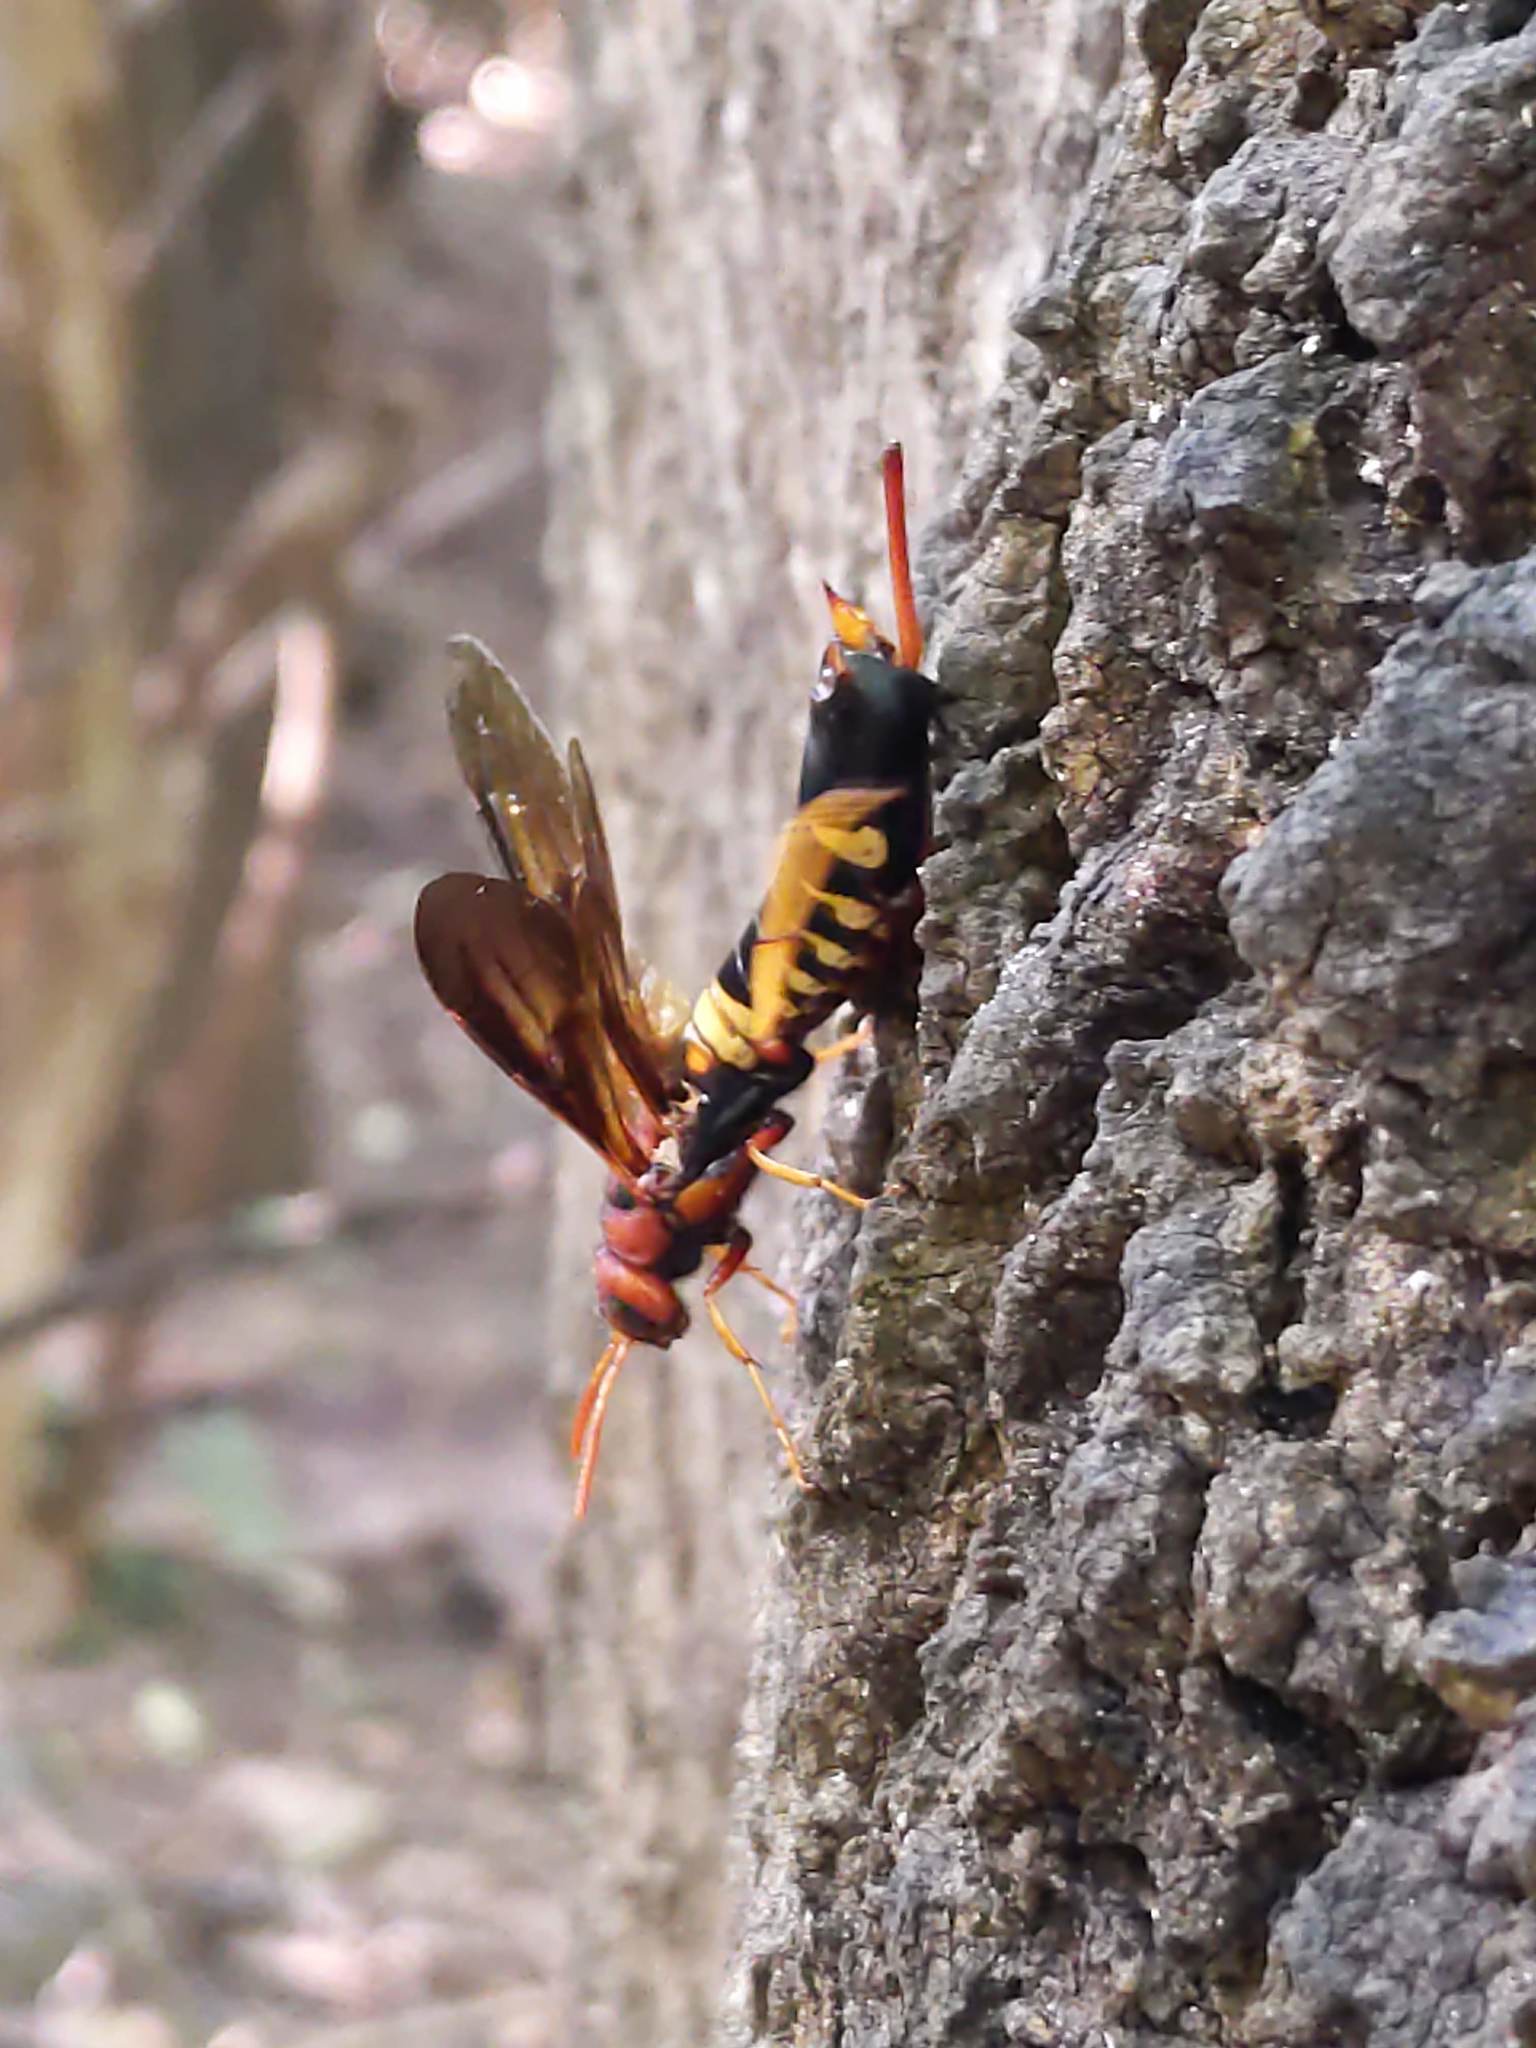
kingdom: Animalia
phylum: Arthropoda
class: Insecta
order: Hymenoptera
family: Siricidae
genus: Tremex
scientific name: Tremex columba
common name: Wasp
